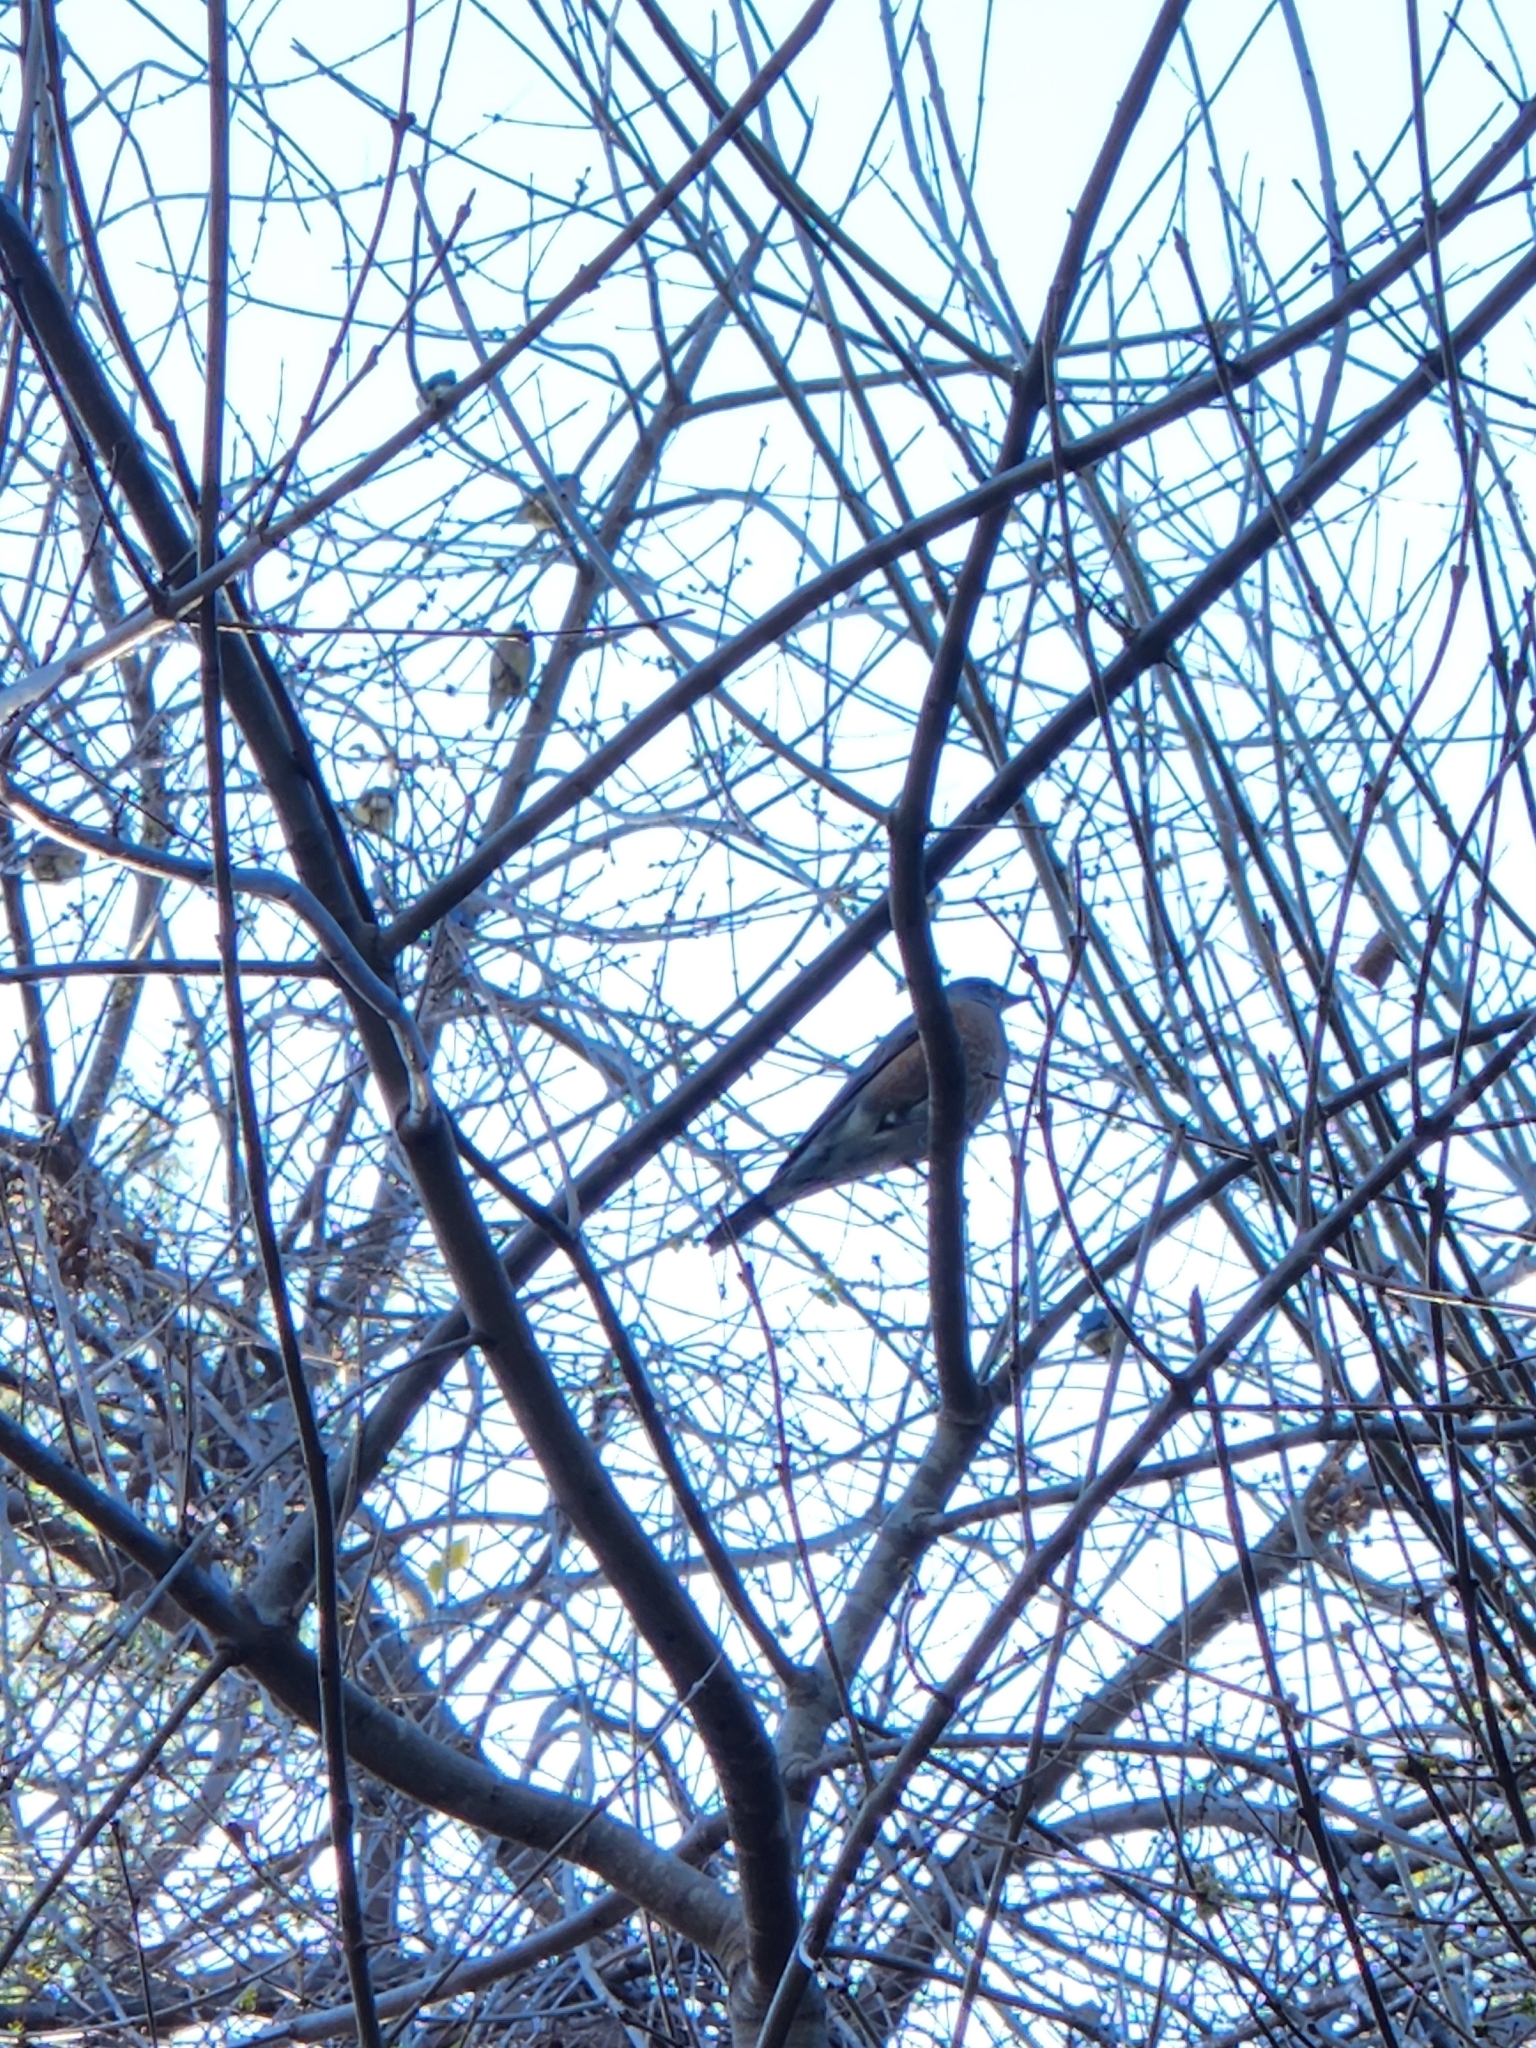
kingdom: Animalia
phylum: Chordata
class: Aves
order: Passeriformes
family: Turdidae
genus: Turdus
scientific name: Turdus migratorius
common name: American robin
